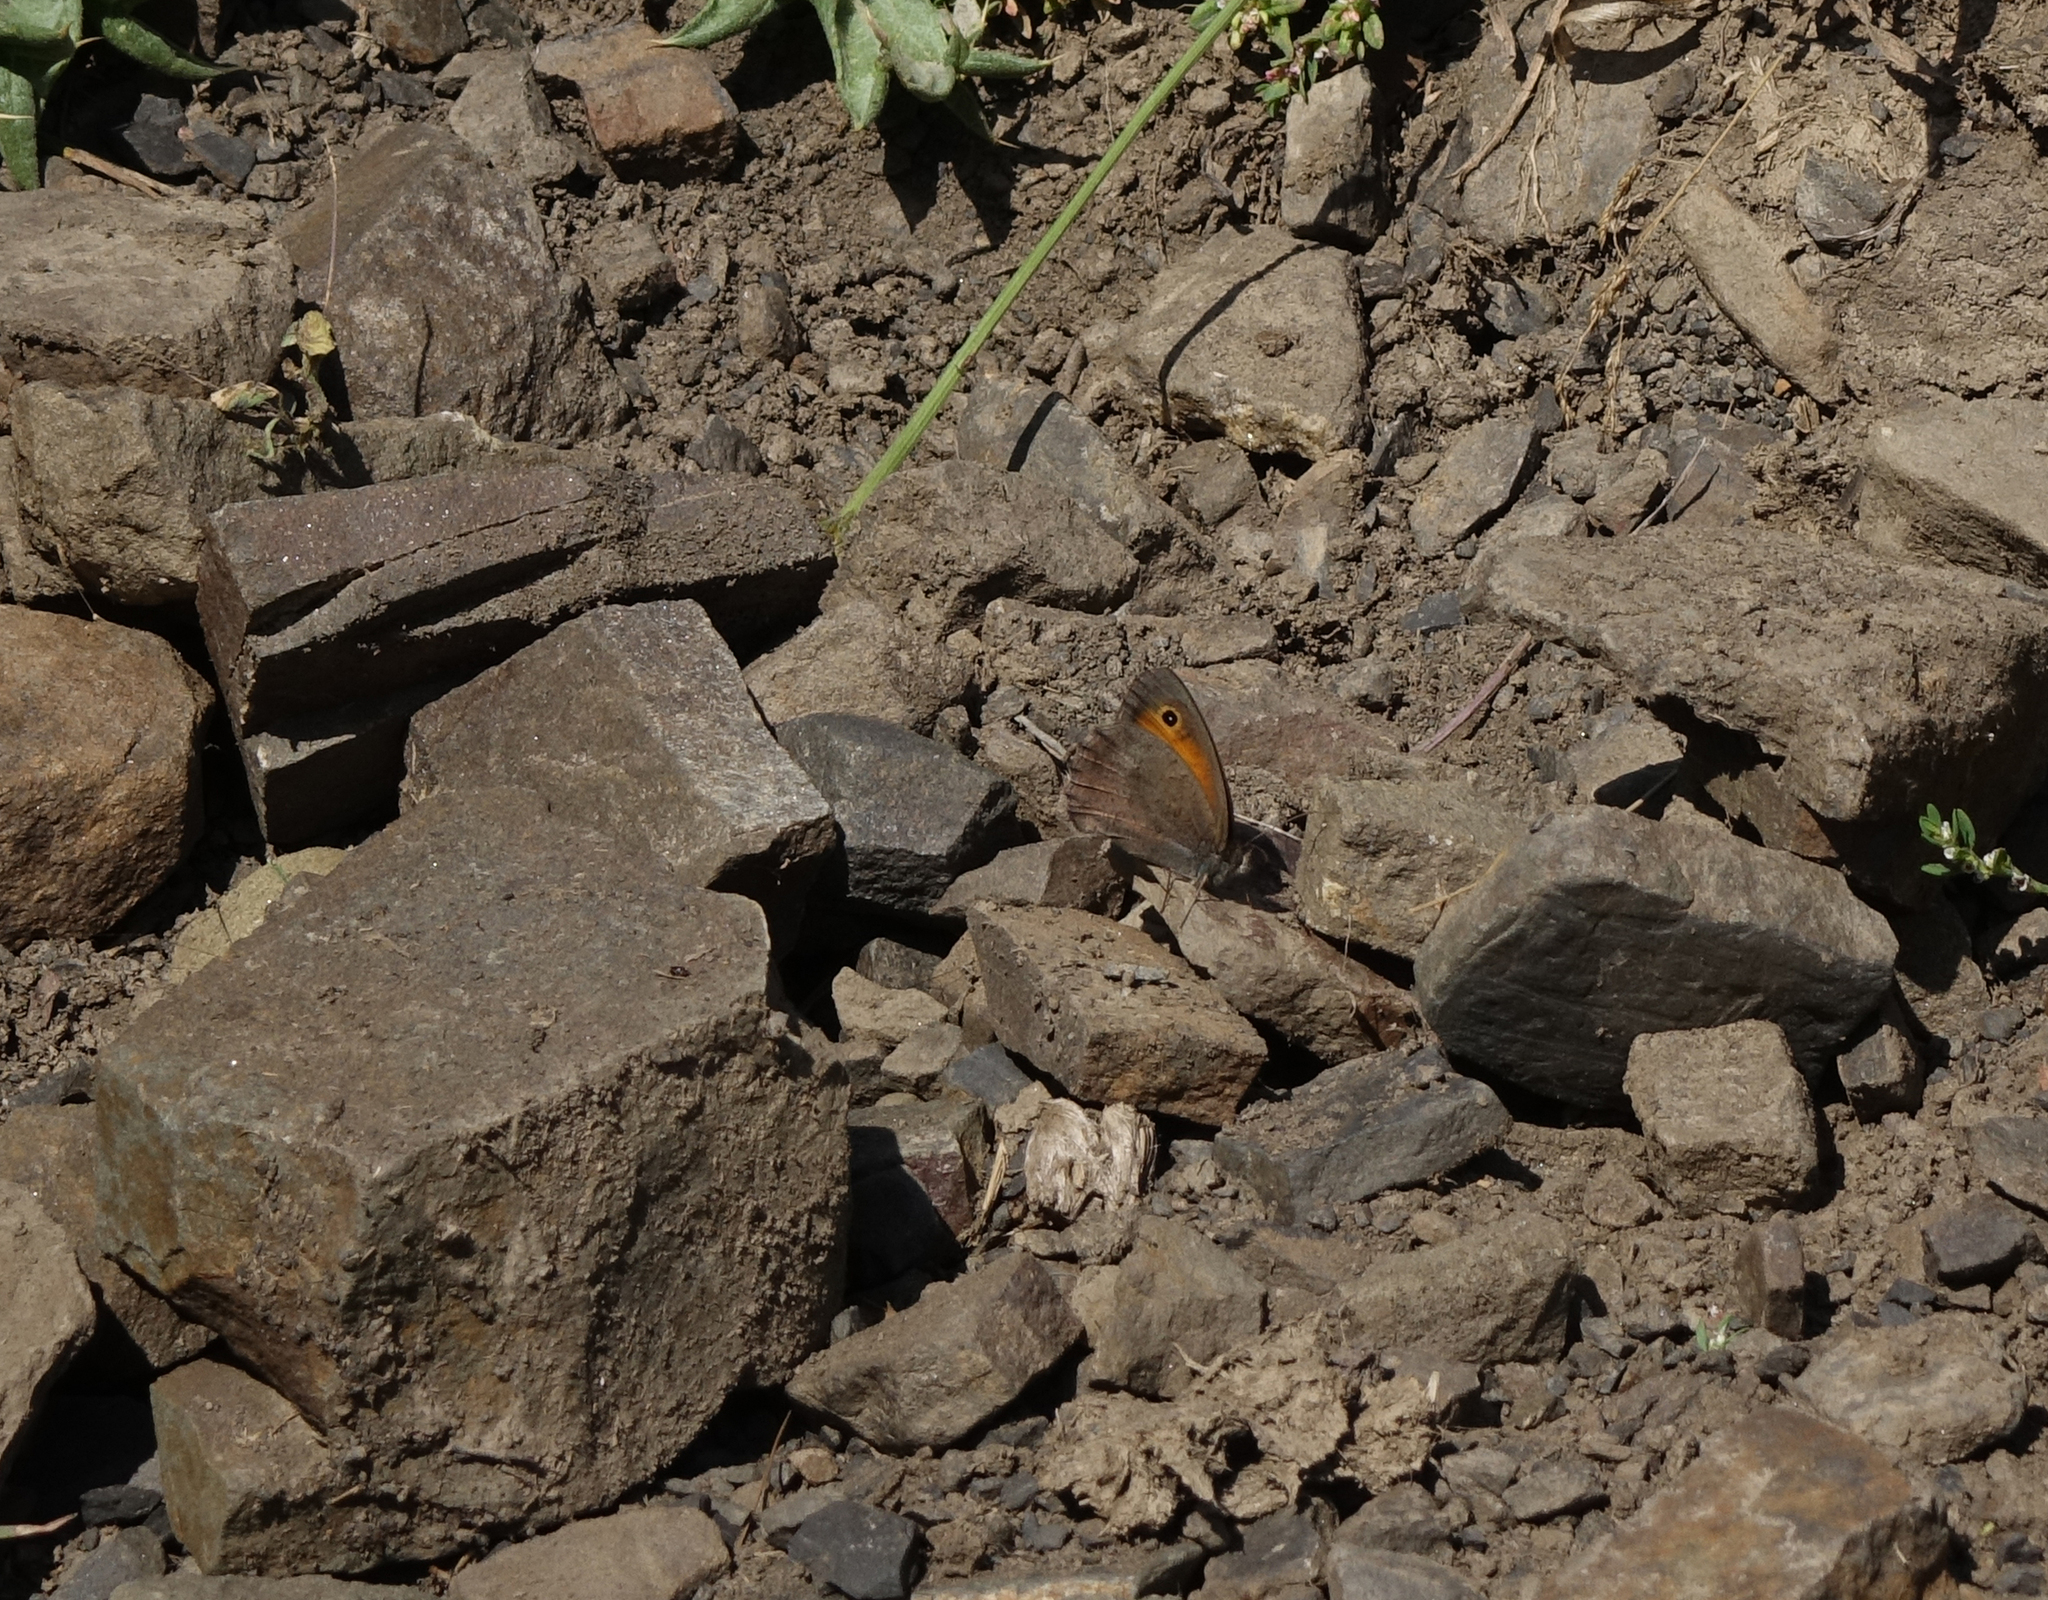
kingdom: Animalia
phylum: Arthropoda
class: Insecta
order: Lepidoptera
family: Nymphalidae
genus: Hyponephele
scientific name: Hyponephele lycaon
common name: Dusky meadow brown
